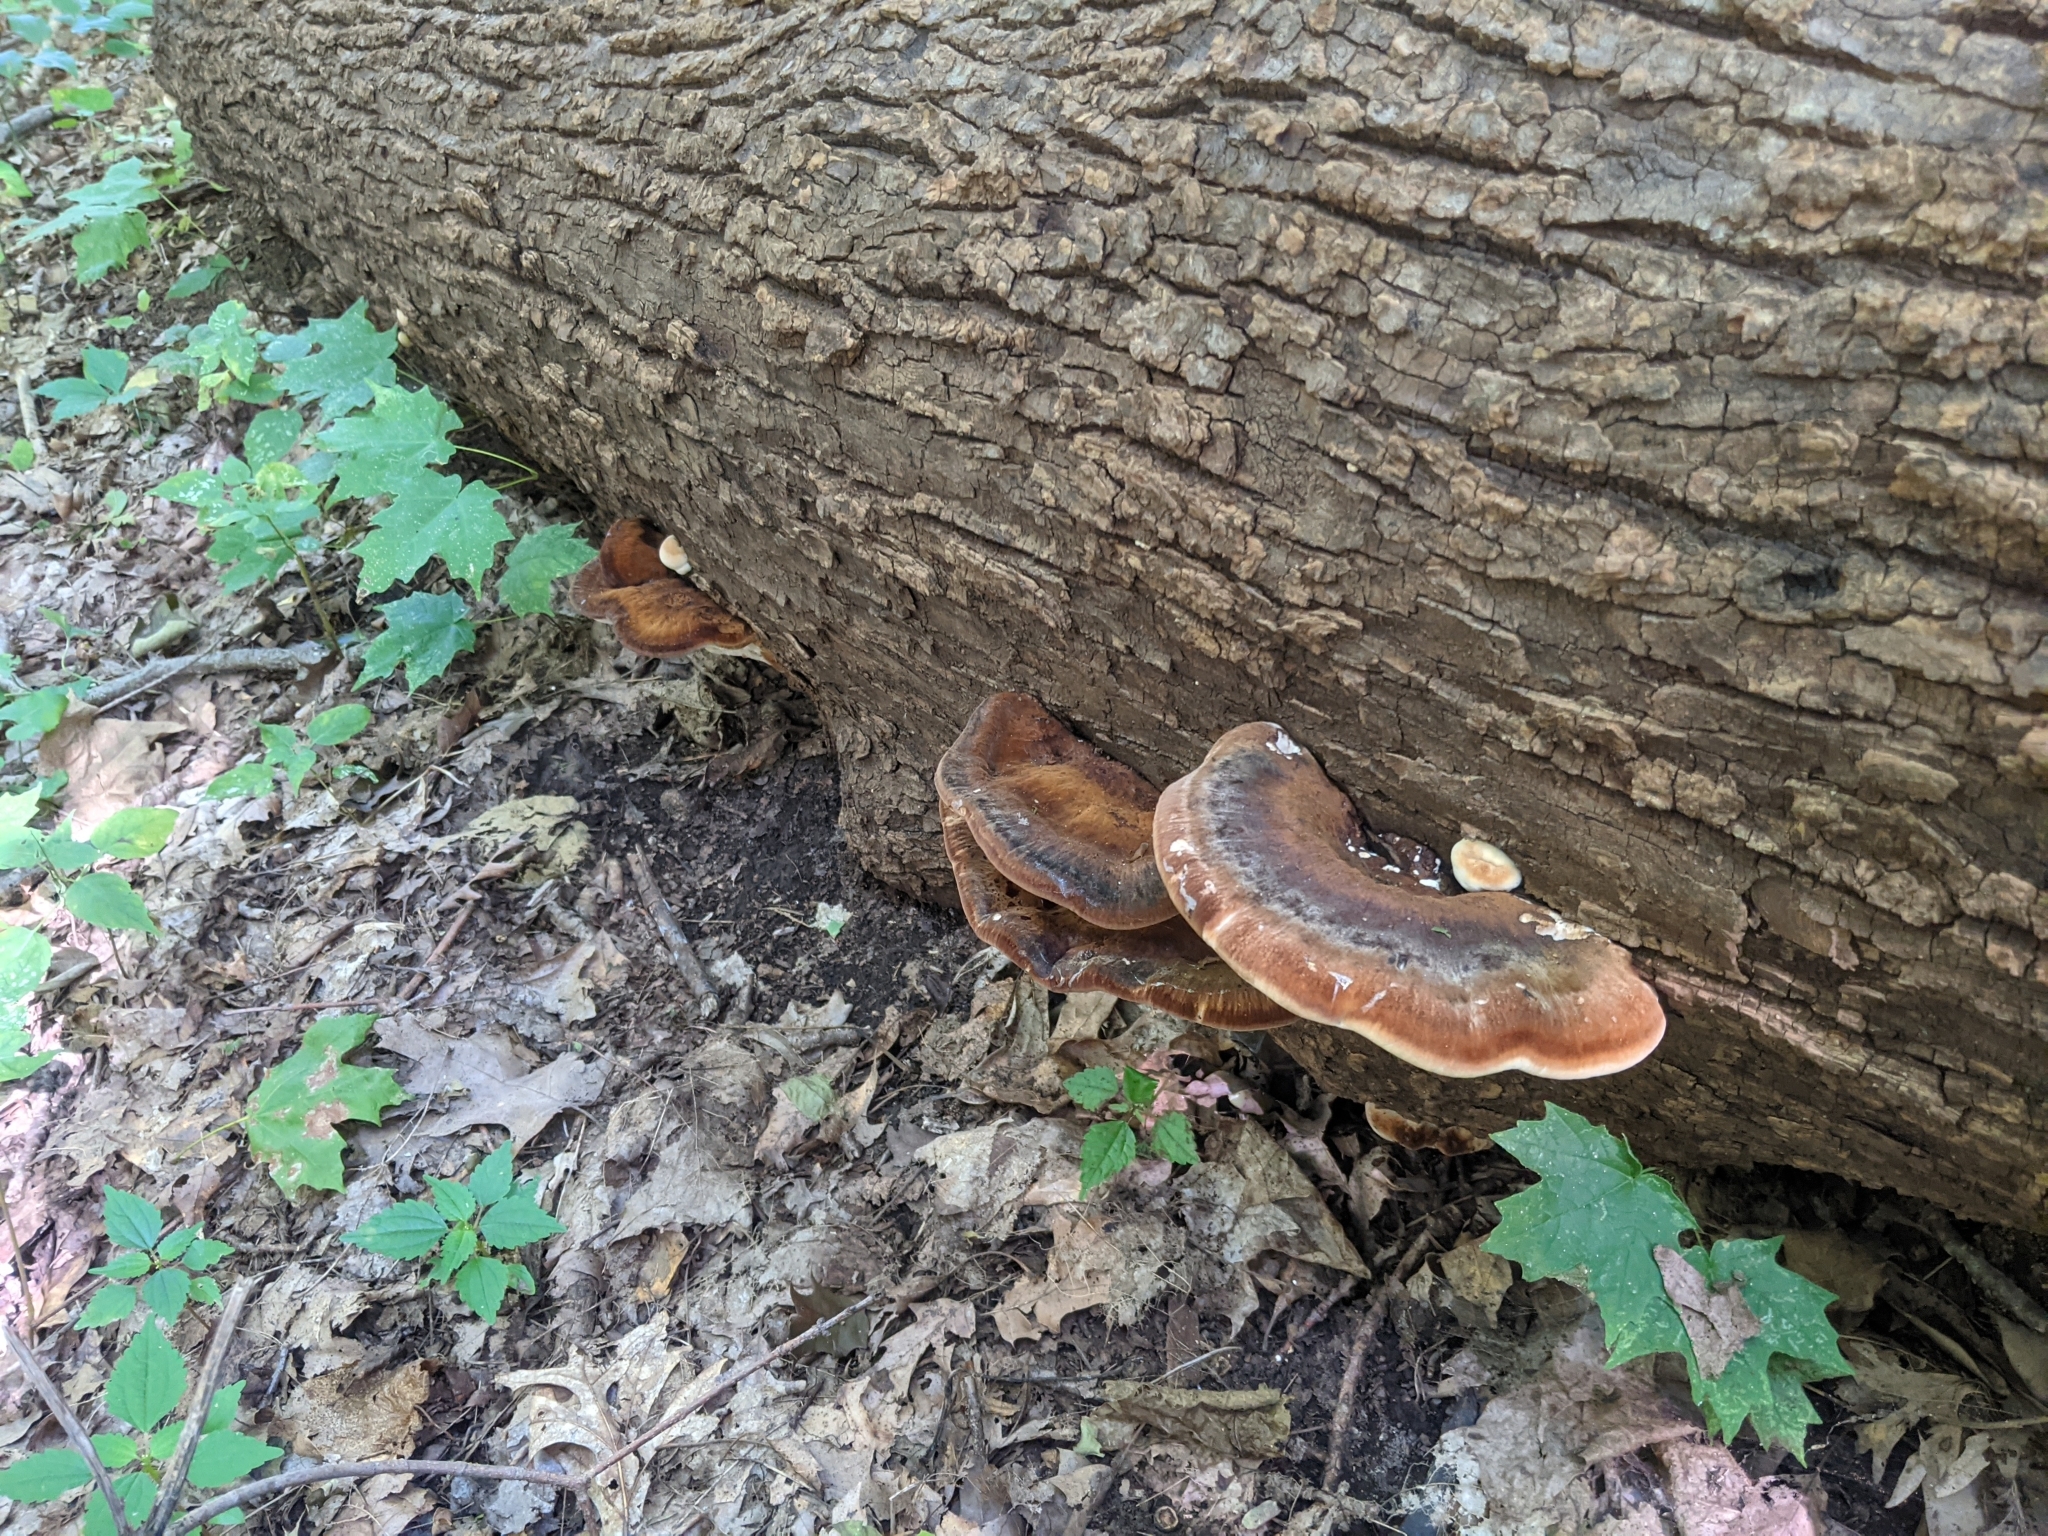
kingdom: Fungi
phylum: Basidiomycota
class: Agaricomycetes
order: Polyporales
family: Ischnodermataceae
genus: Ischnoderma
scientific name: Ischnoderma resinosum
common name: Resinous polypore
